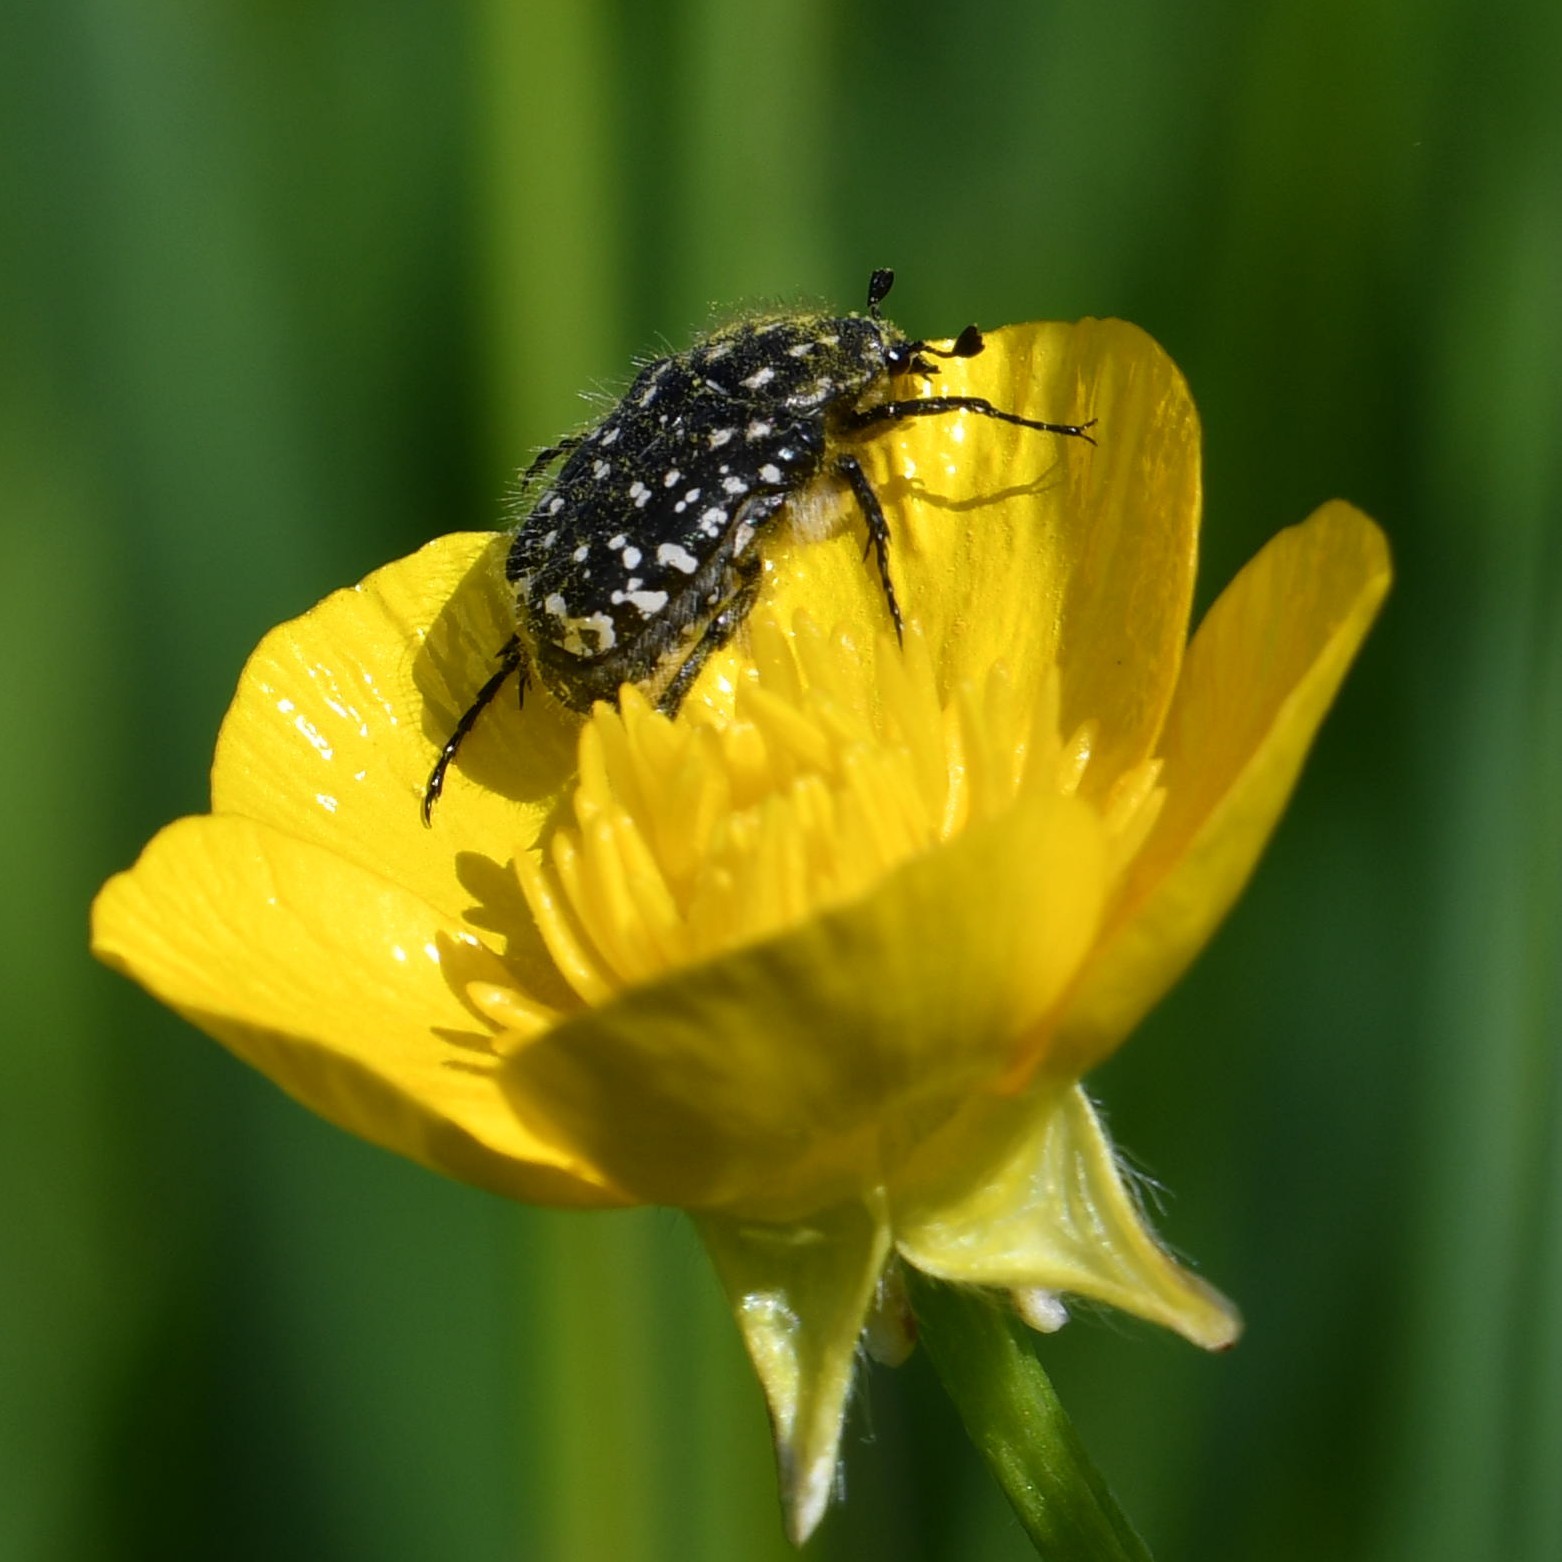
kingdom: Animalia
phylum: Arthropoda
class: Insecta
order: Coleoptera
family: Scarabaeidae
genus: Oxythyrea
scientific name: Oxythyrea funesta
